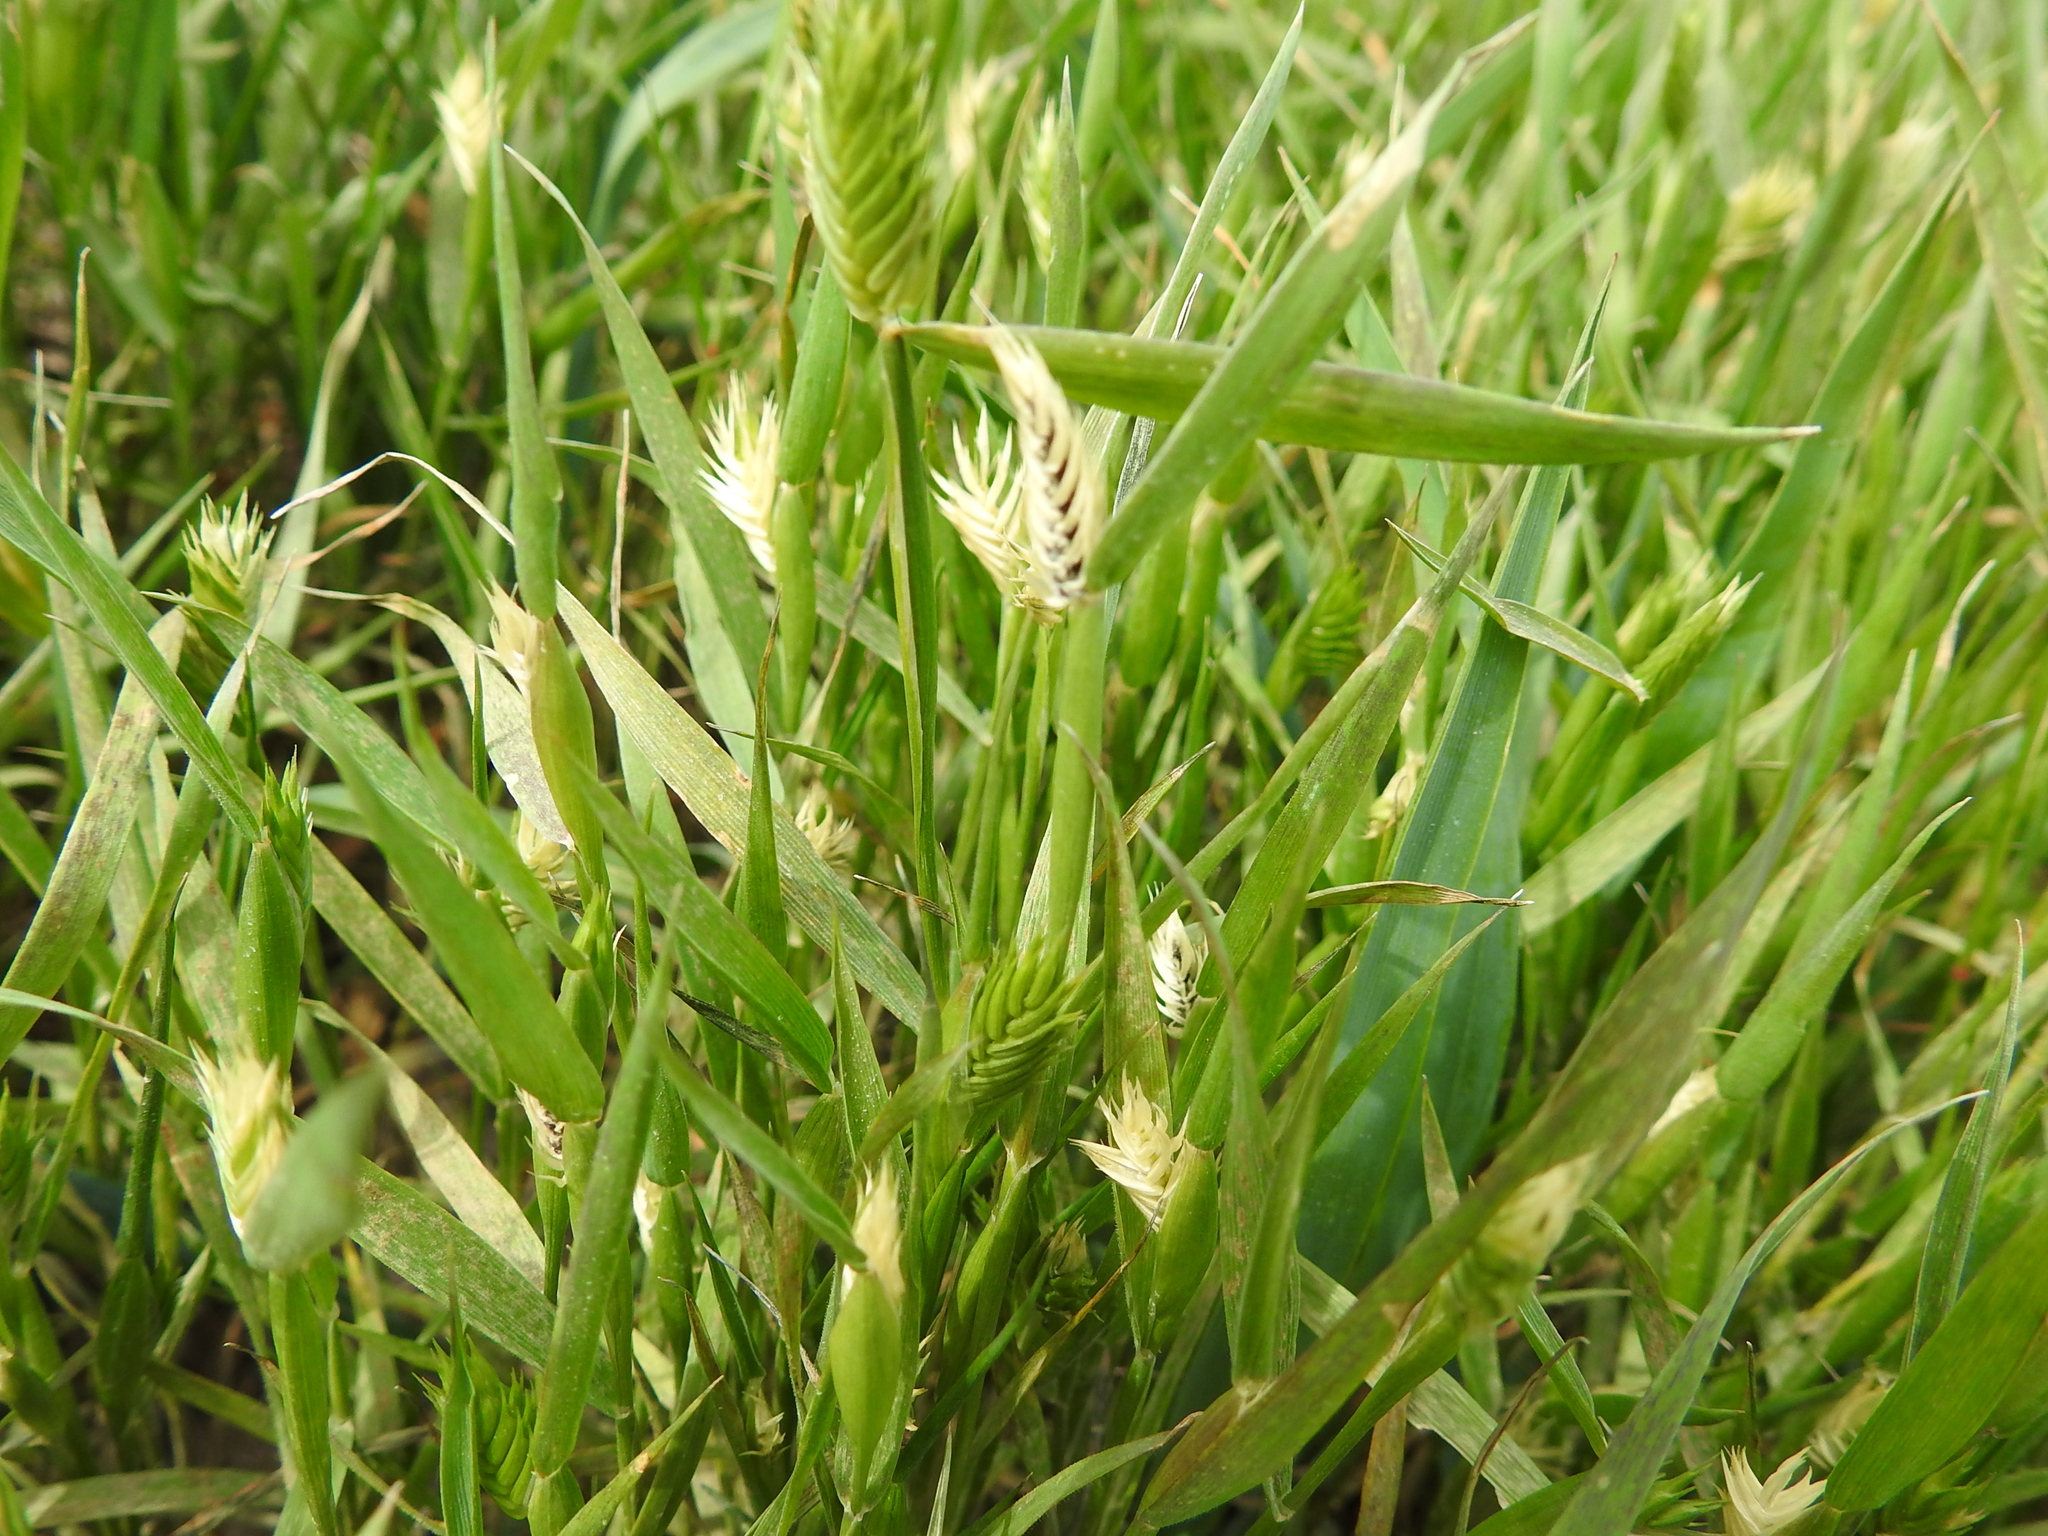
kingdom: Plantae
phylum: Tracheophyta
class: Liliopsida
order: Poales
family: Poaceae
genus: Eremopyrum
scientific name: Eremopyrum triticeum
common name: Annual wheatgrass
